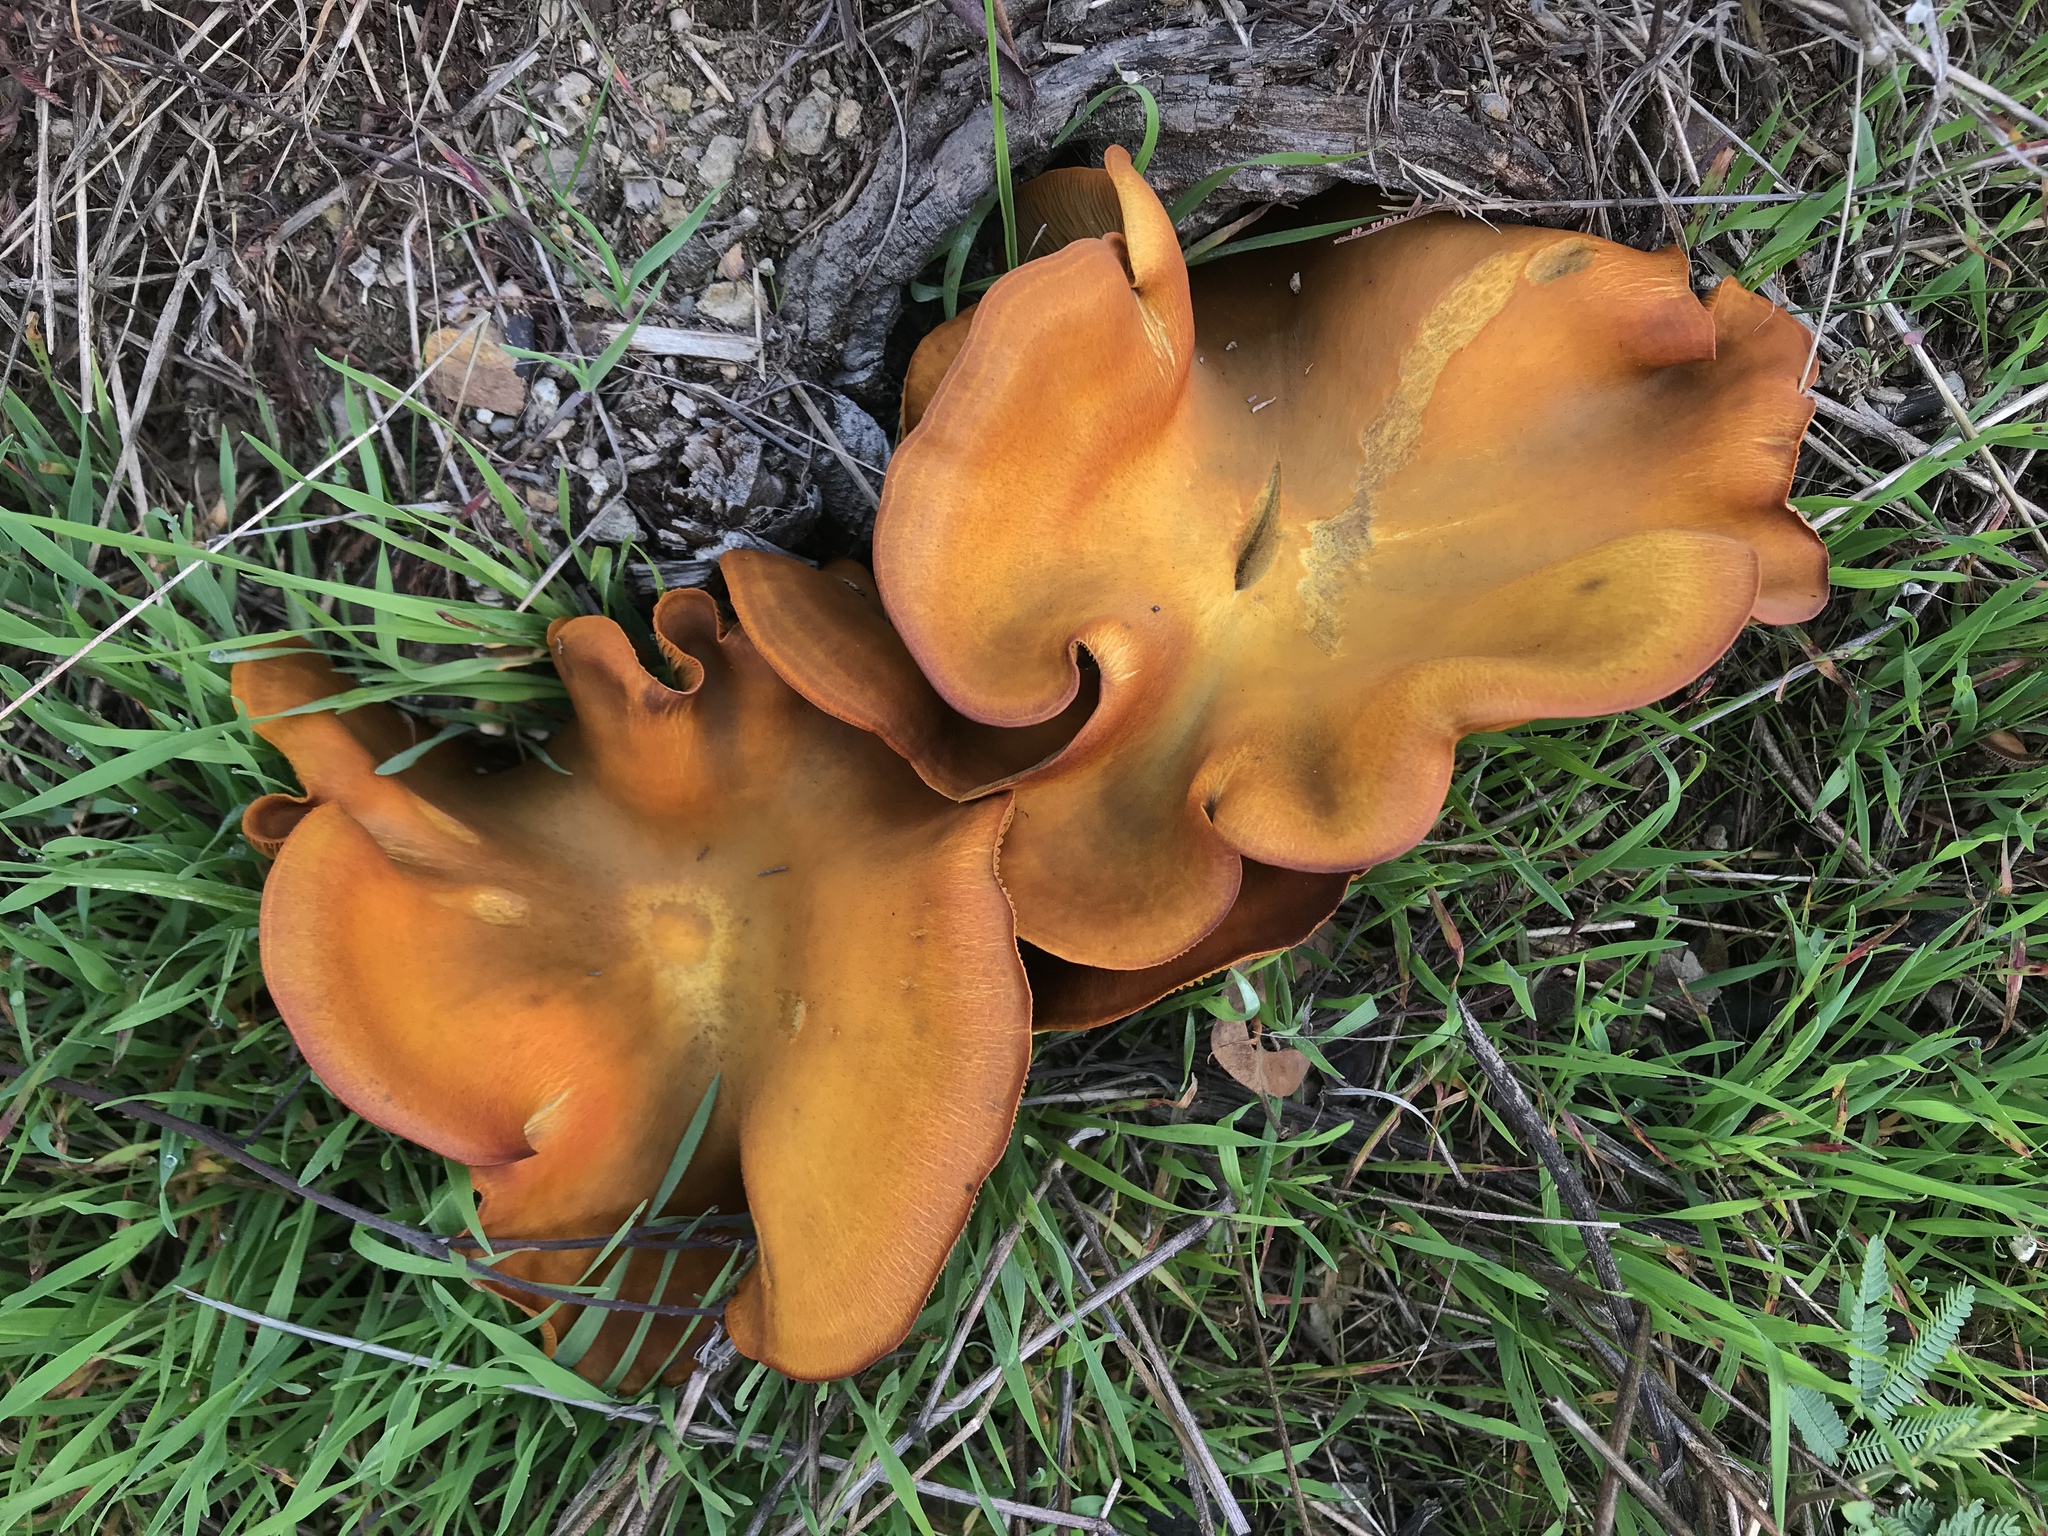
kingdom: Fungi
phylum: Basidiomycota
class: Agaricomycetes
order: Agaricales
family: Omphalotaceae
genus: Omphalotus
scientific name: Omphalotus olivascens
